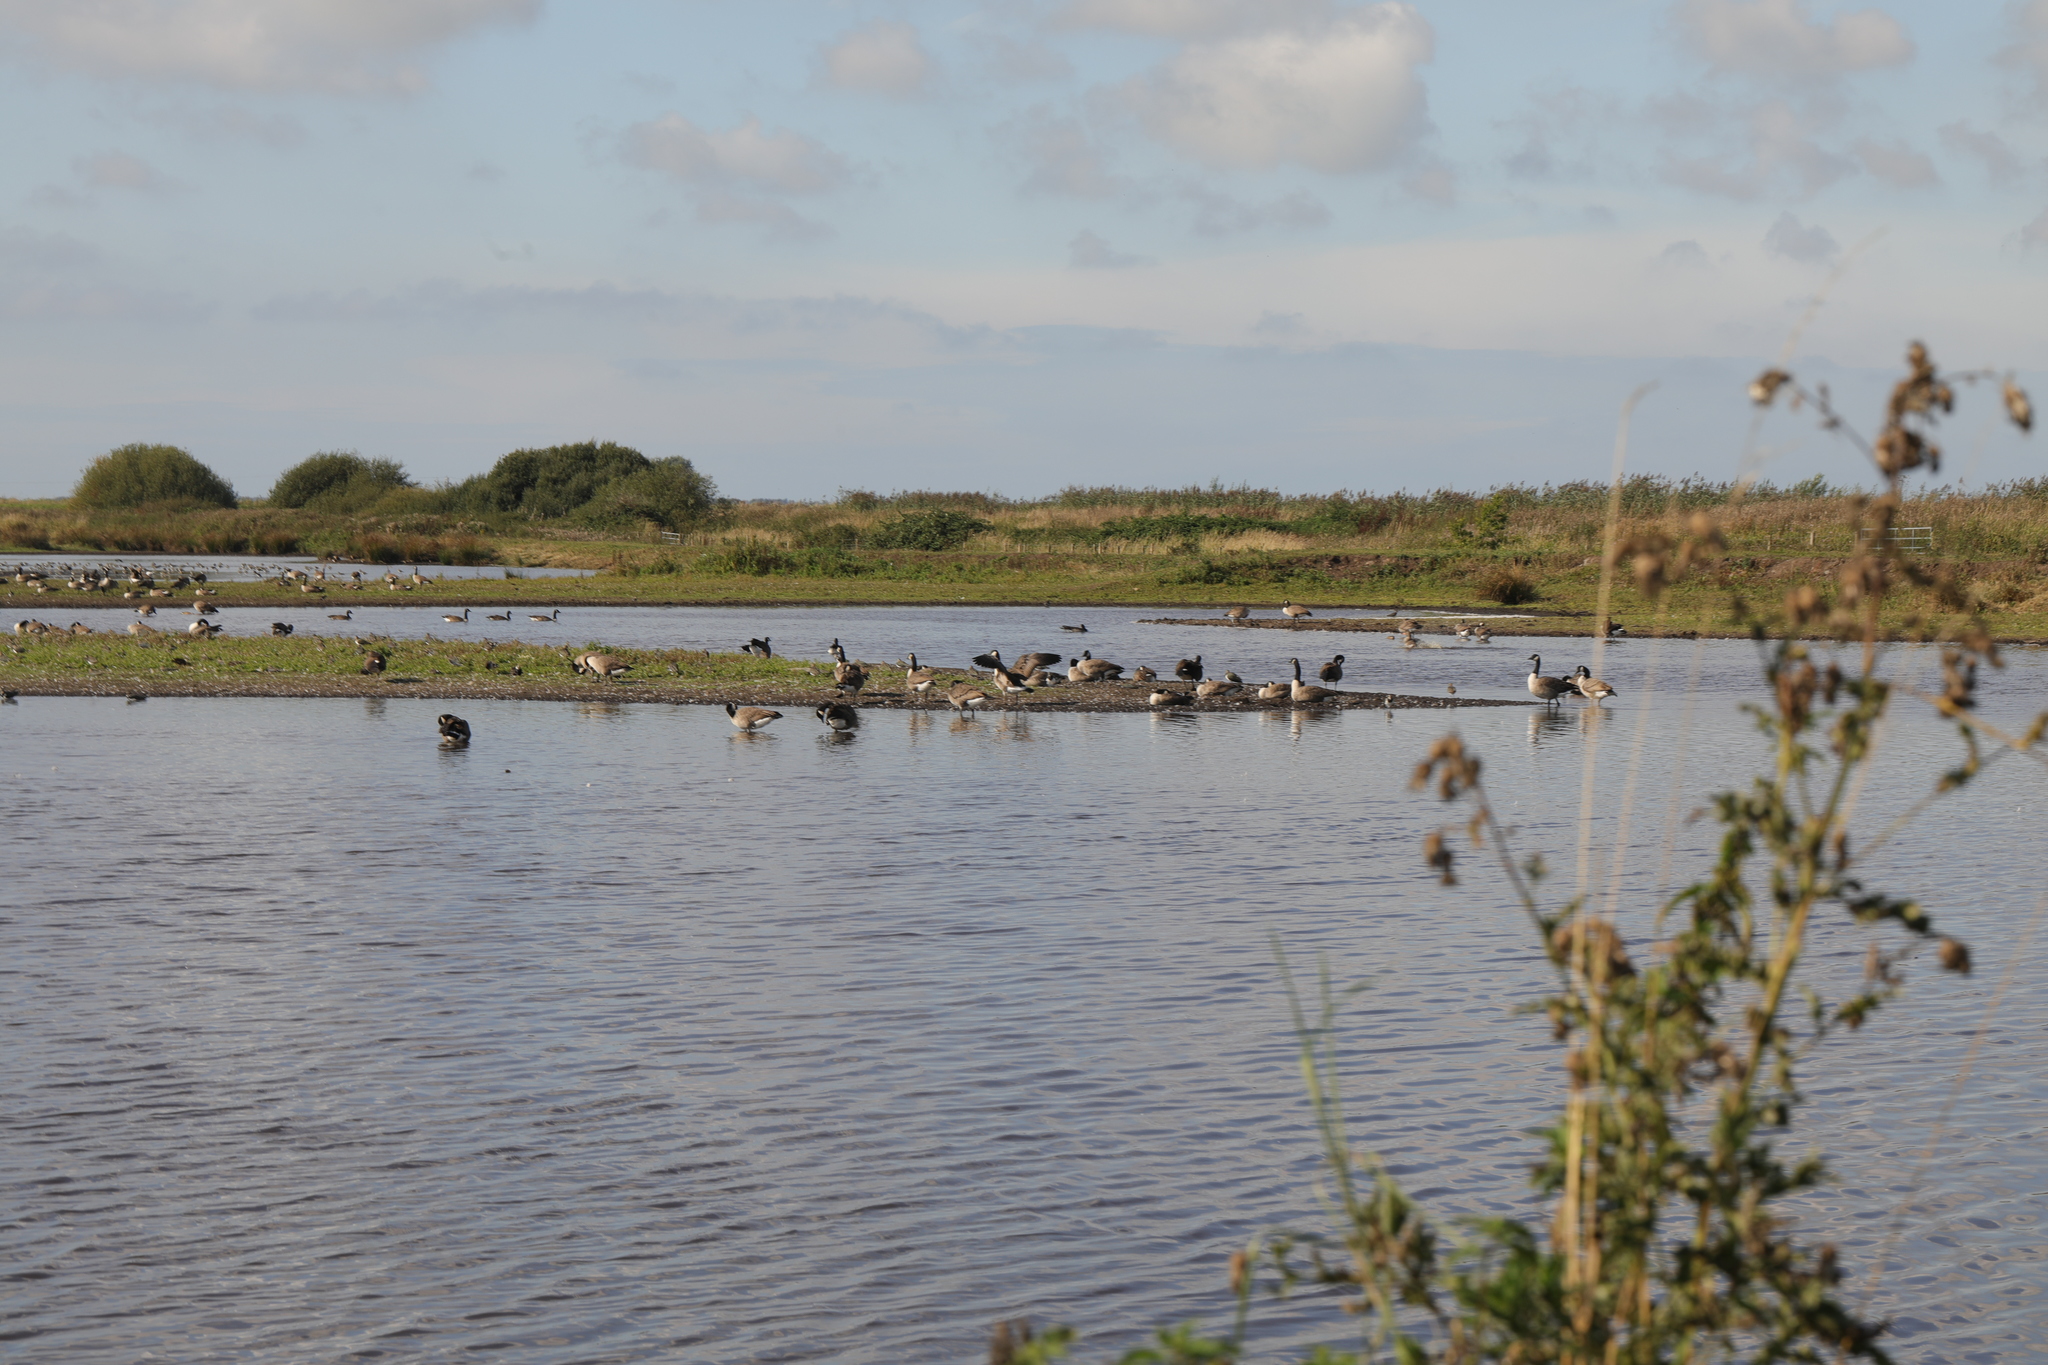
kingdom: Animalia
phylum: Chordata
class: Aves
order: Anseriformes
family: Anatidae
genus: Branta
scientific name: Branta canadensis
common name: Canada goose
